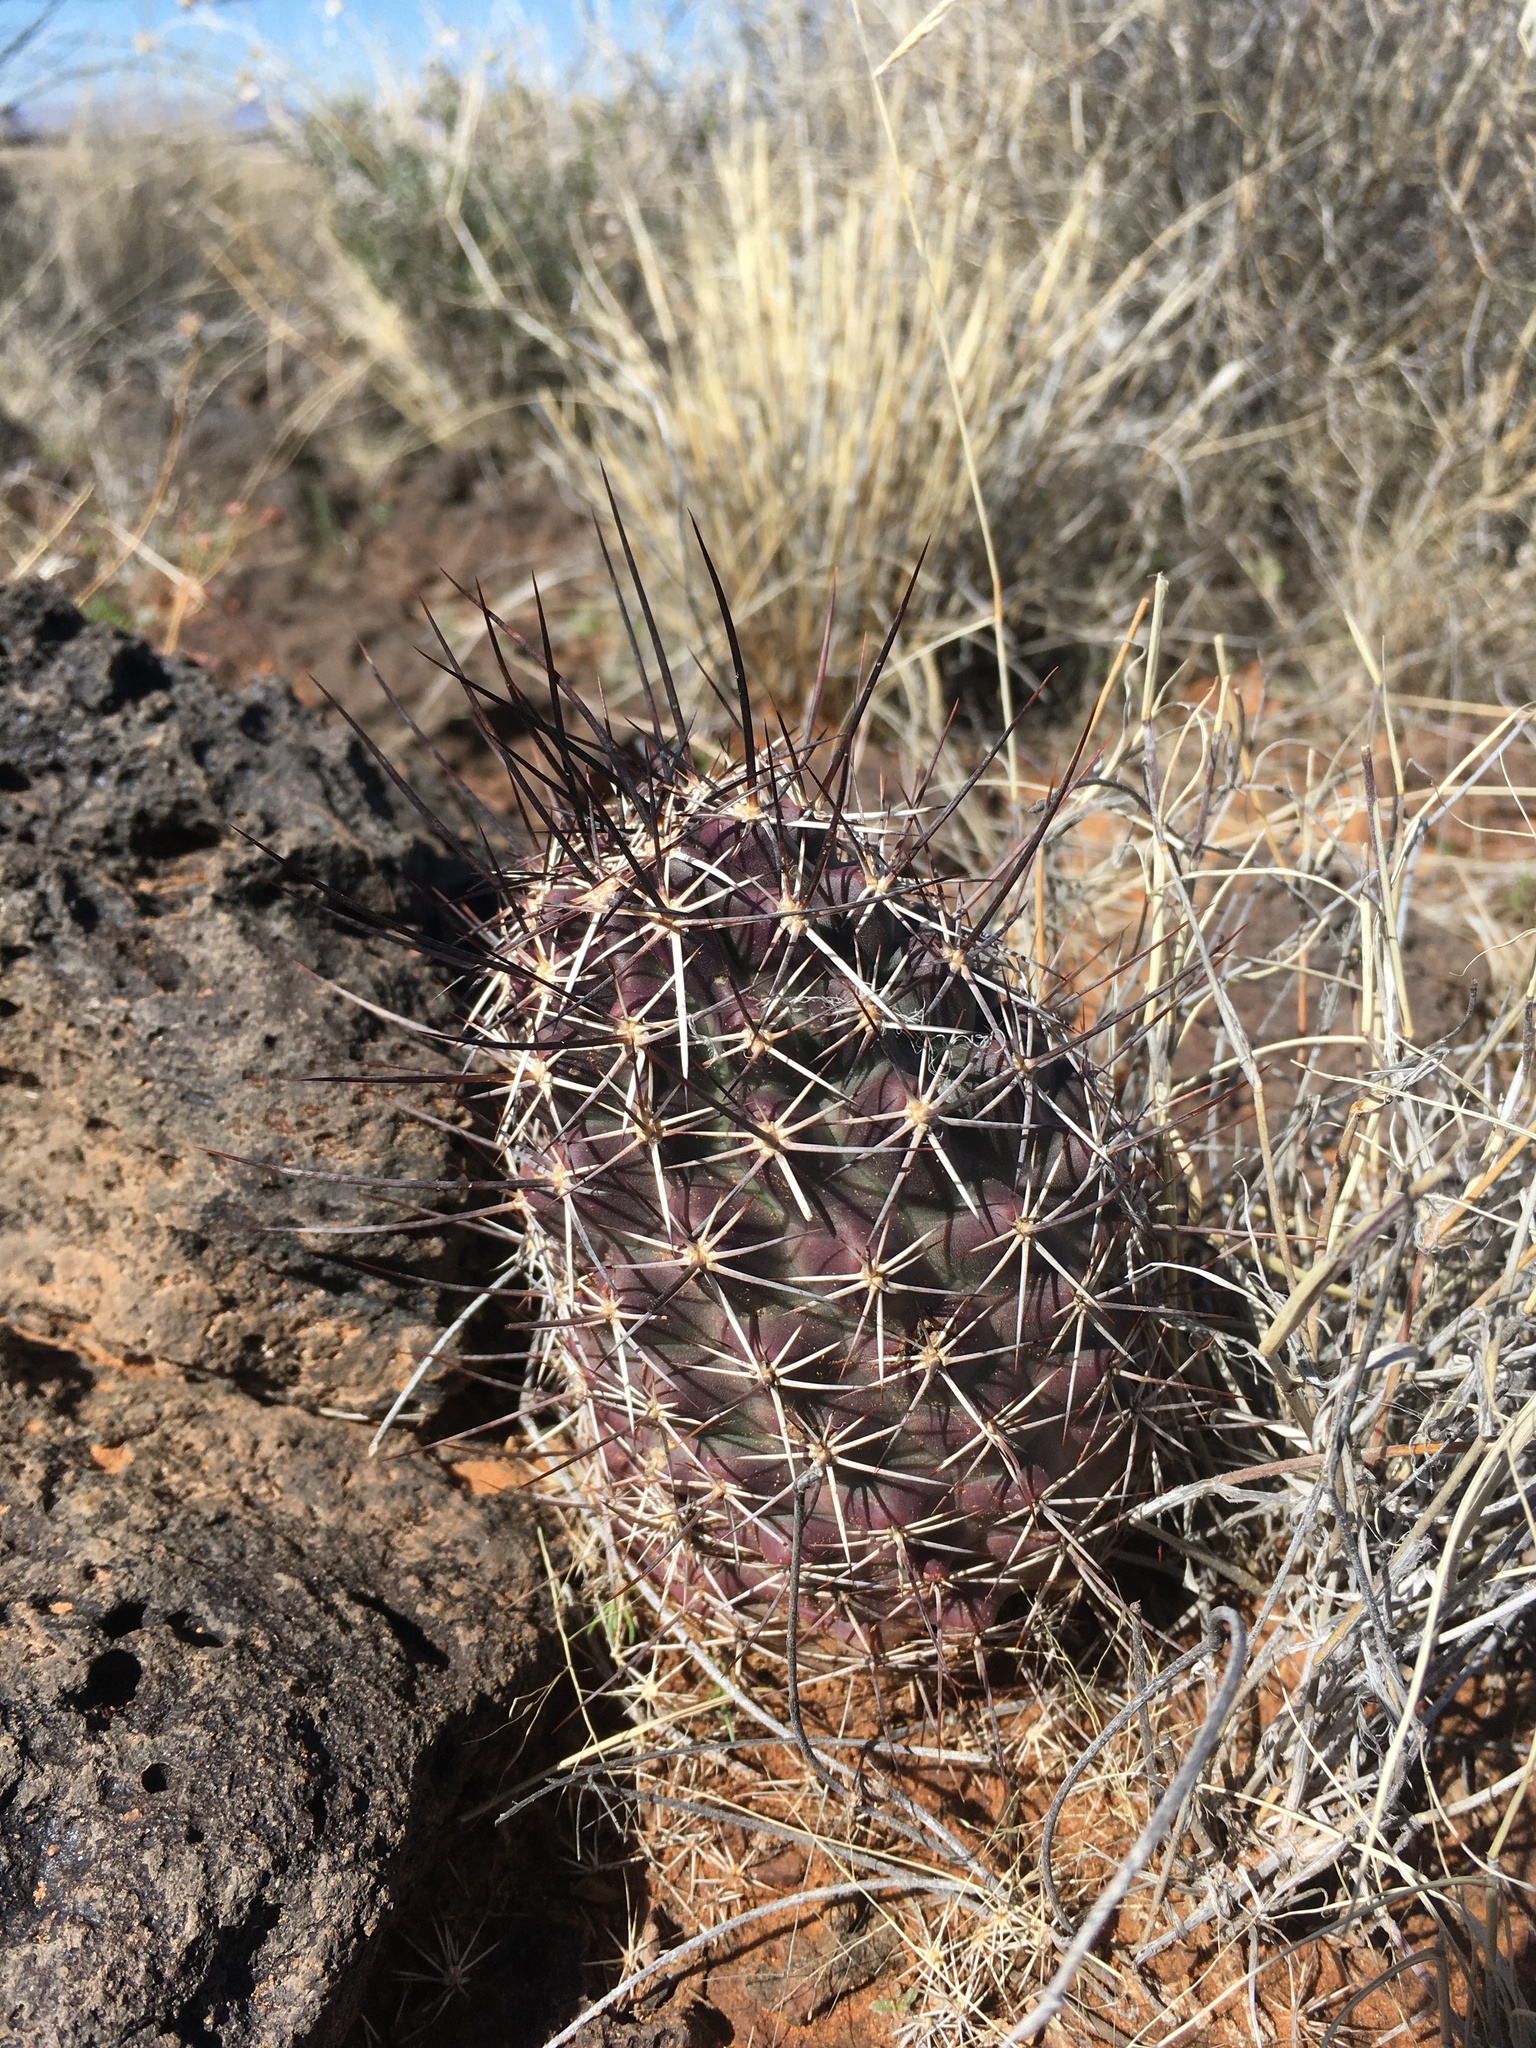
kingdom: Plantae
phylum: Tracheophyta
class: Magnoliopsida
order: Caryophyllales
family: Cactaceae
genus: Echinocereus
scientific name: Echinocereus fendleri
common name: Fendler's hedgehog cactus
